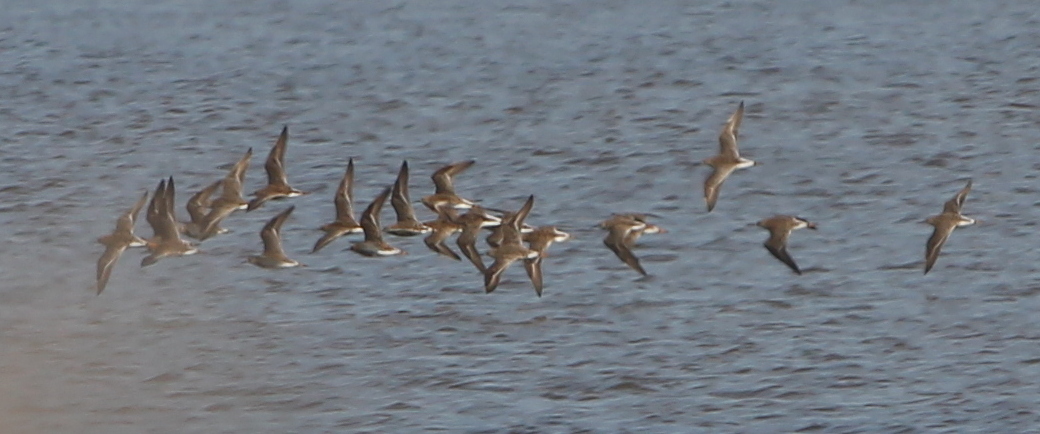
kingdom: Animalia
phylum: Chordata
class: Aves
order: Charadriiformes
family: Scolopacidae
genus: Calidris
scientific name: Calidris pugnax
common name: Ruff
